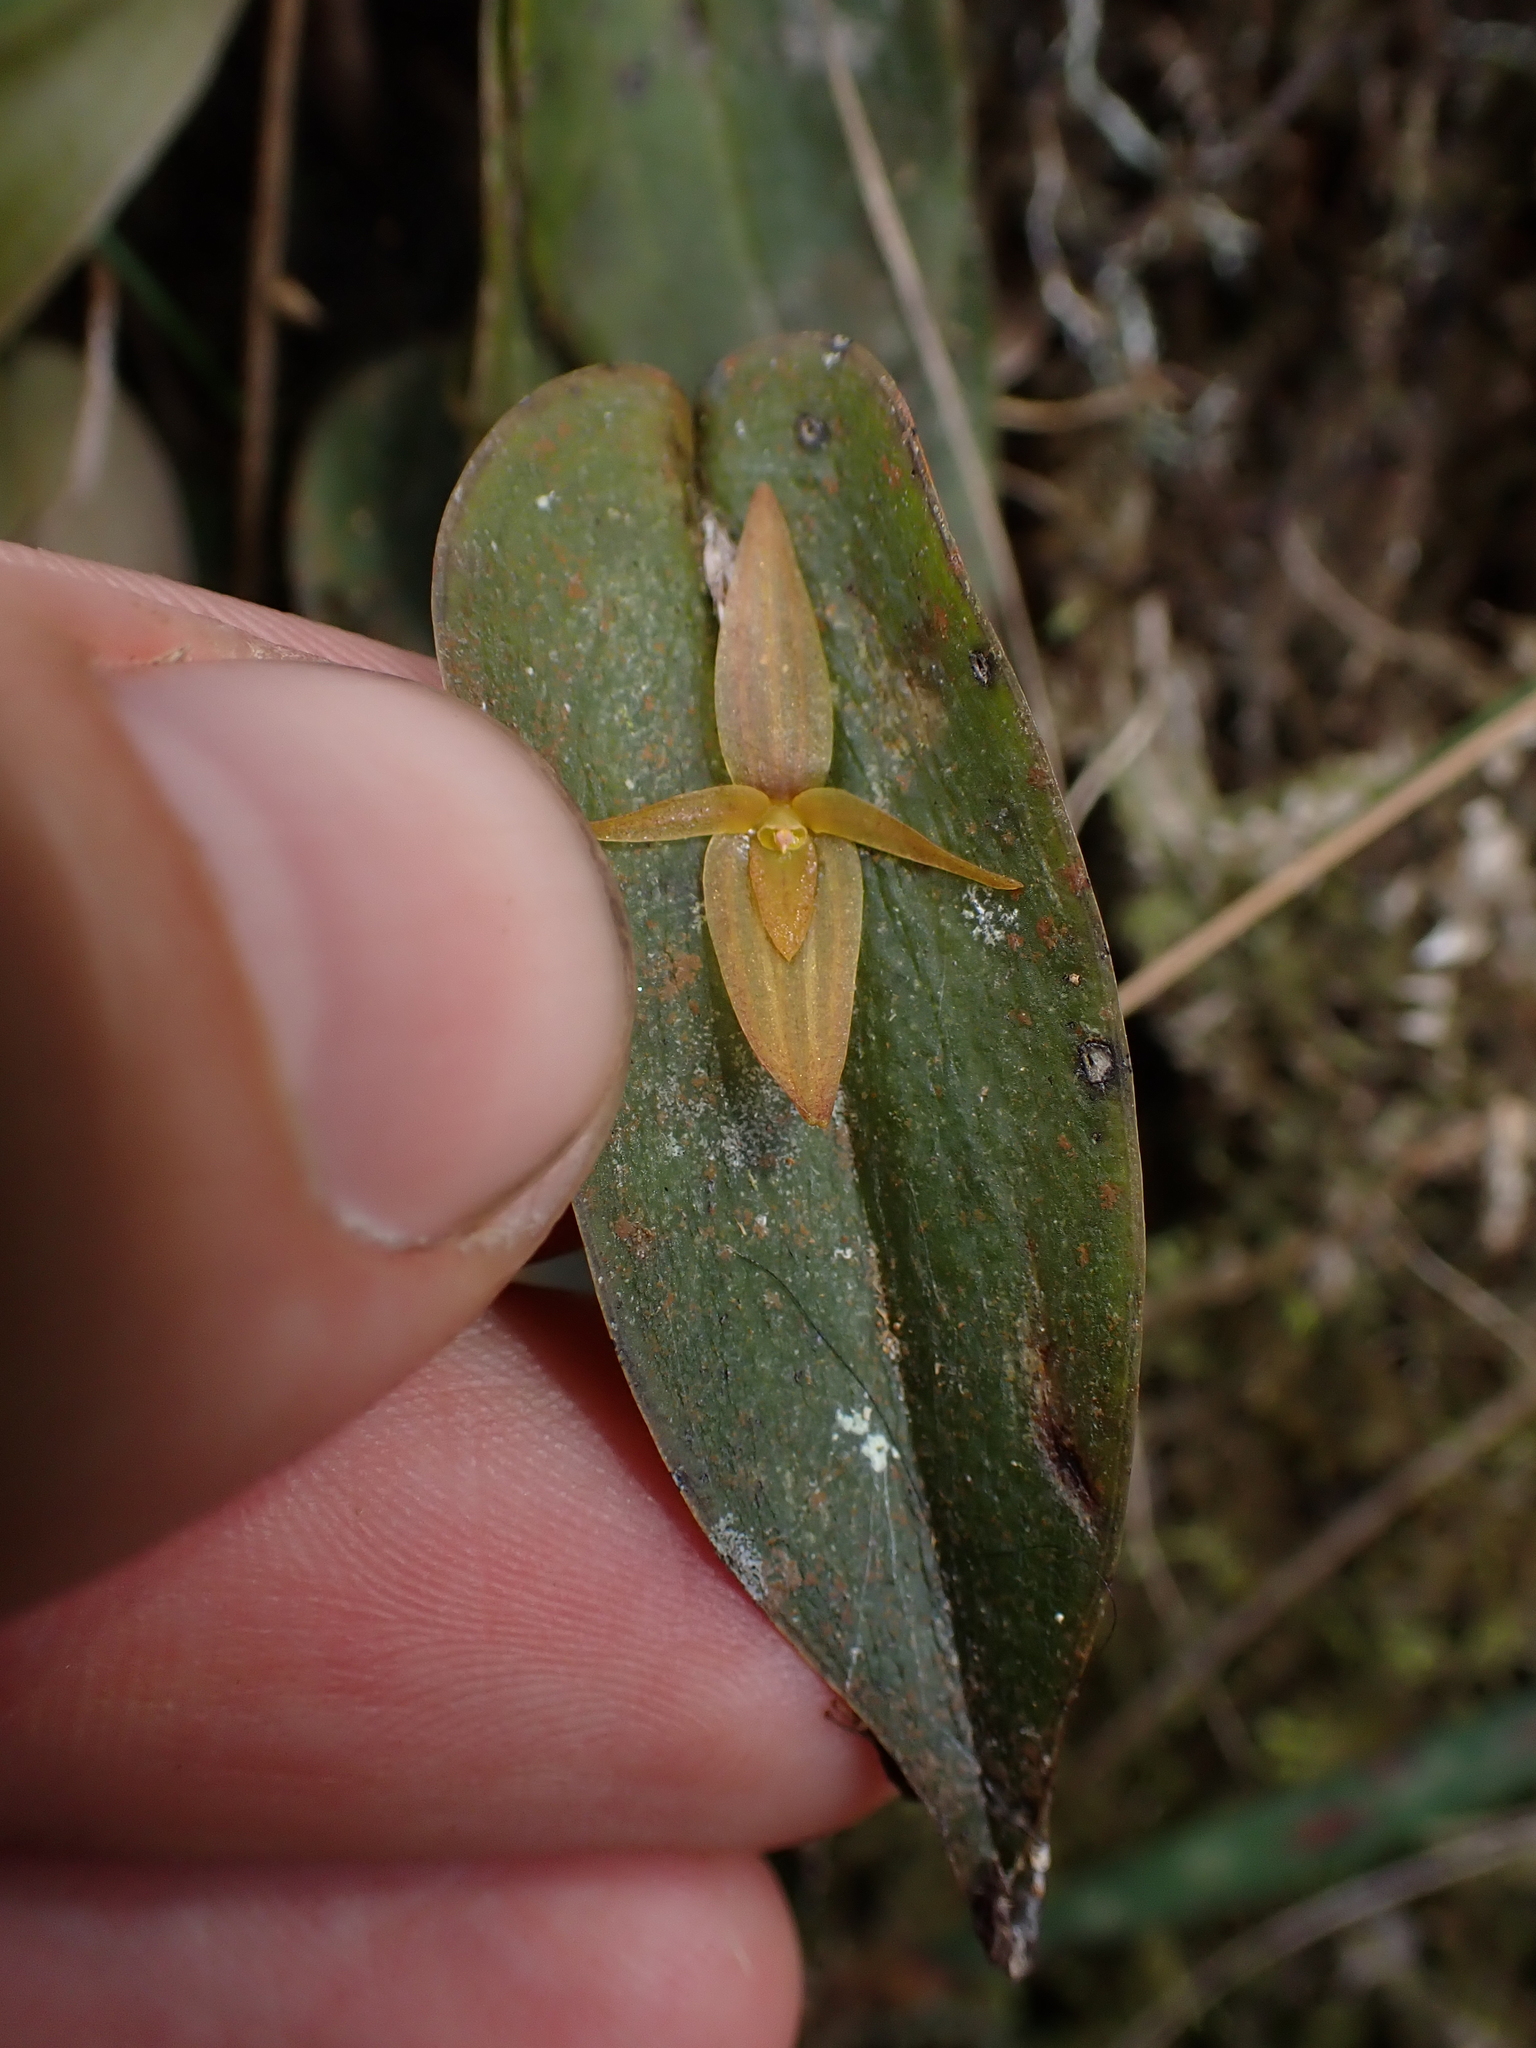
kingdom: Plantae
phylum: Tracheophyta
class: Liliopsida
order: Asparagales
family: Orchidaceae
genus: Pleurothallis
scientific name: Pleurothallis crucifera
